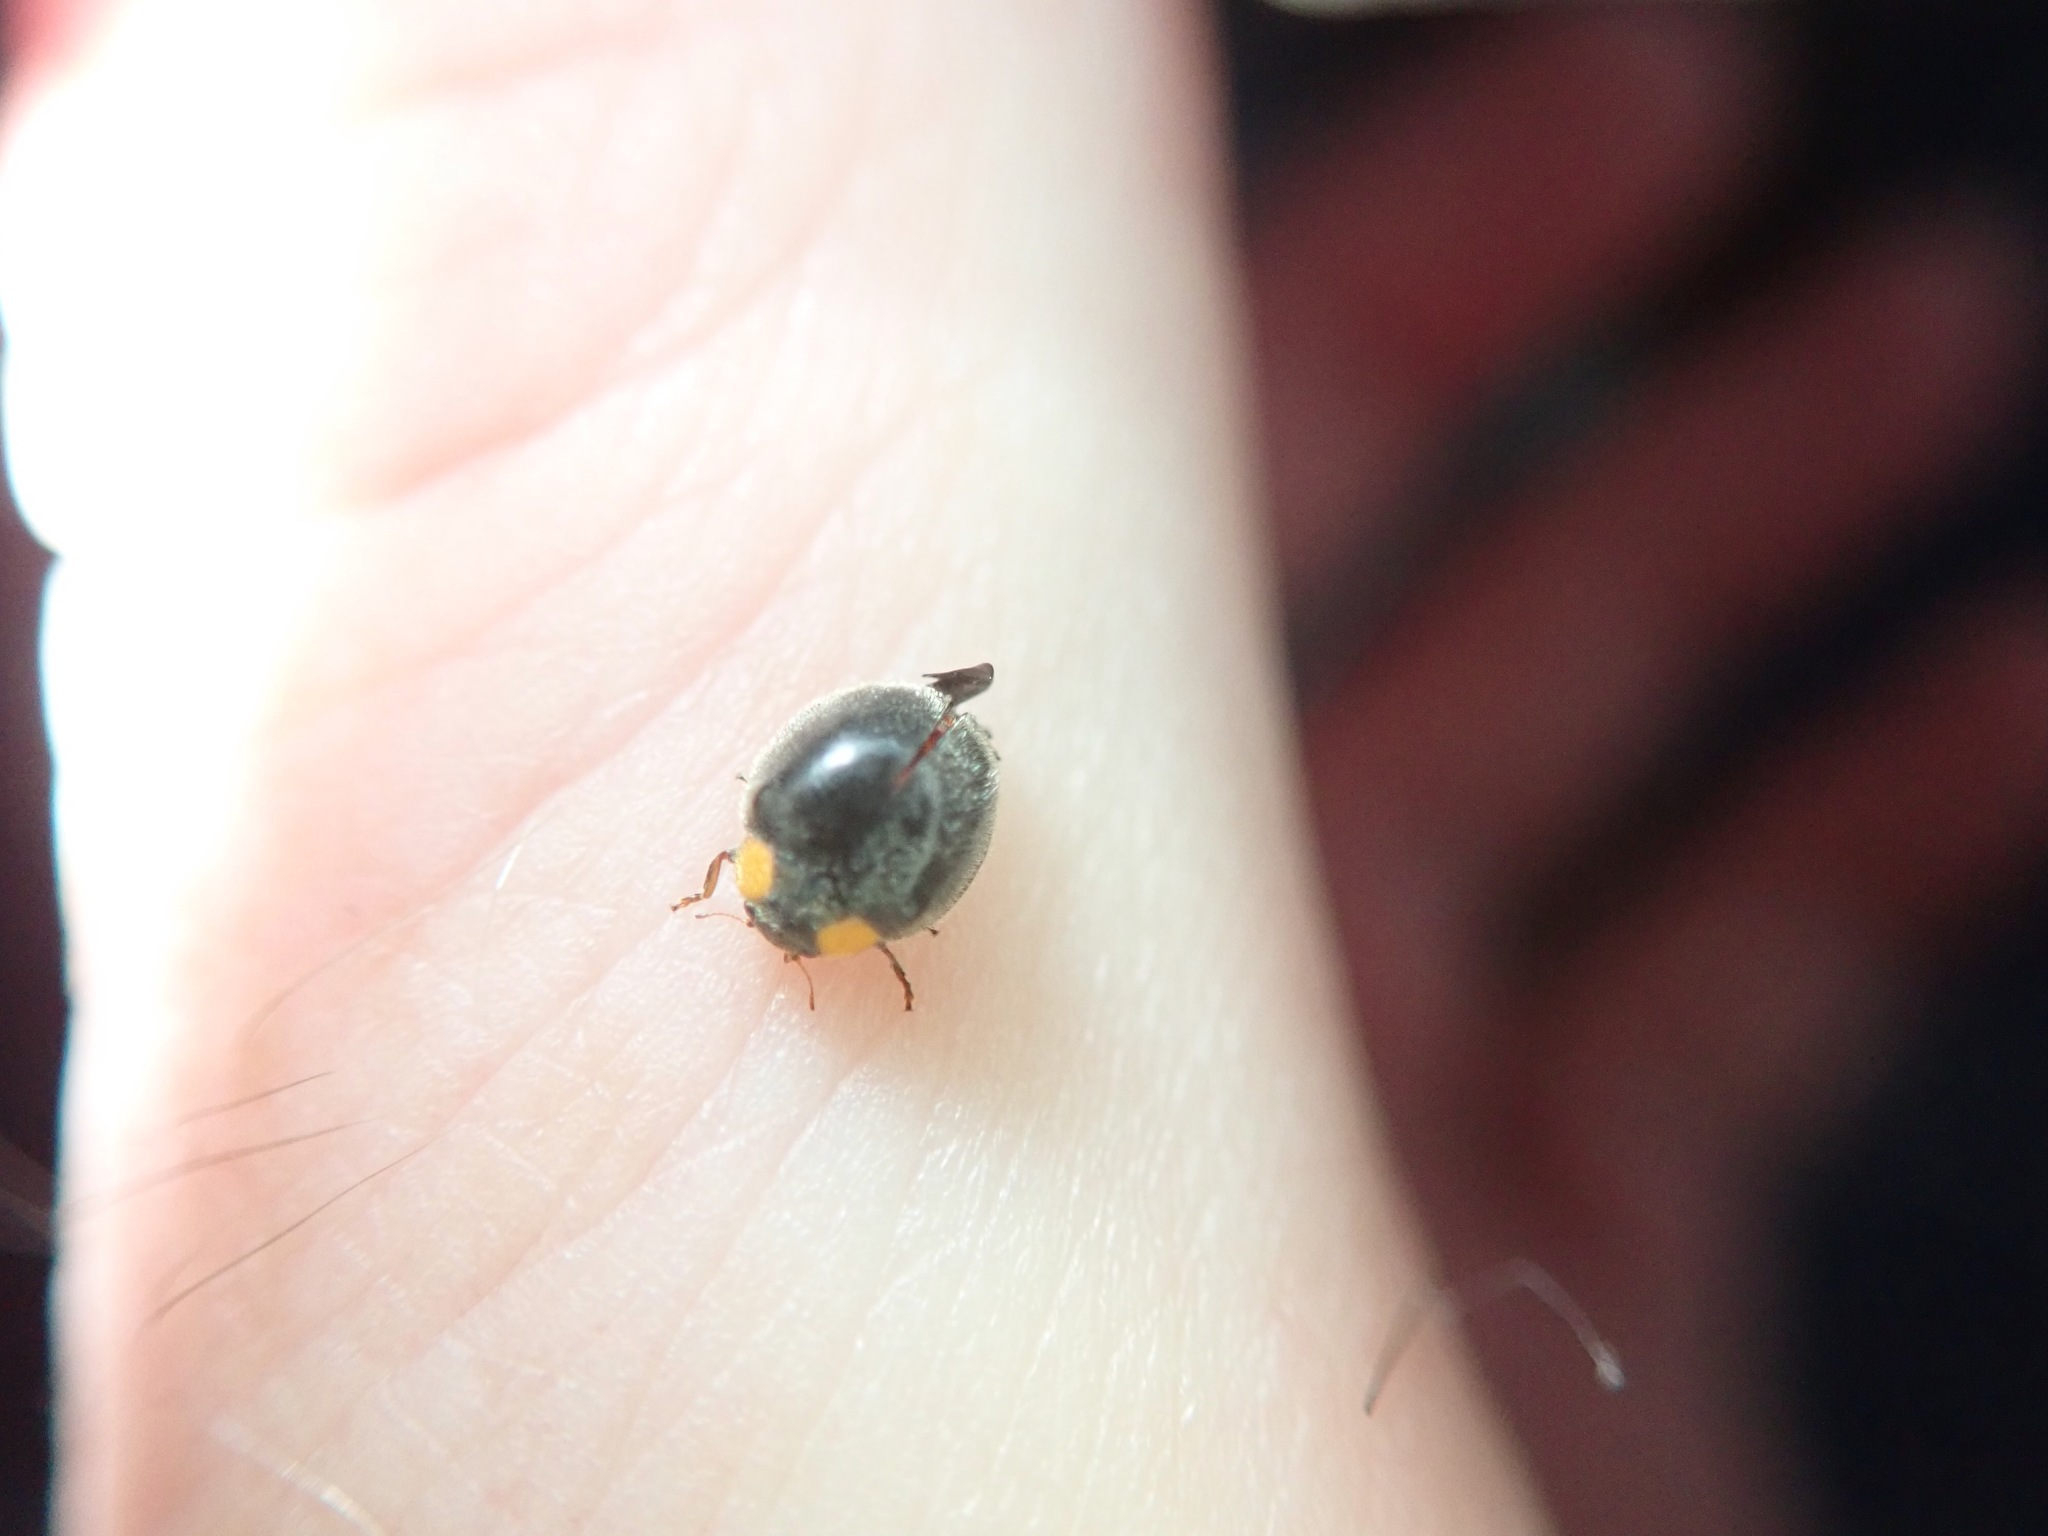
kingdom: Animalia
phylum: Arthropoda
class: Insecta
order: Coleoptera
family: Coccinellidae
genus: Scymnodes
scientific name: Scymnodes lividigaster
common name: Yellowshouldered lady beetle
